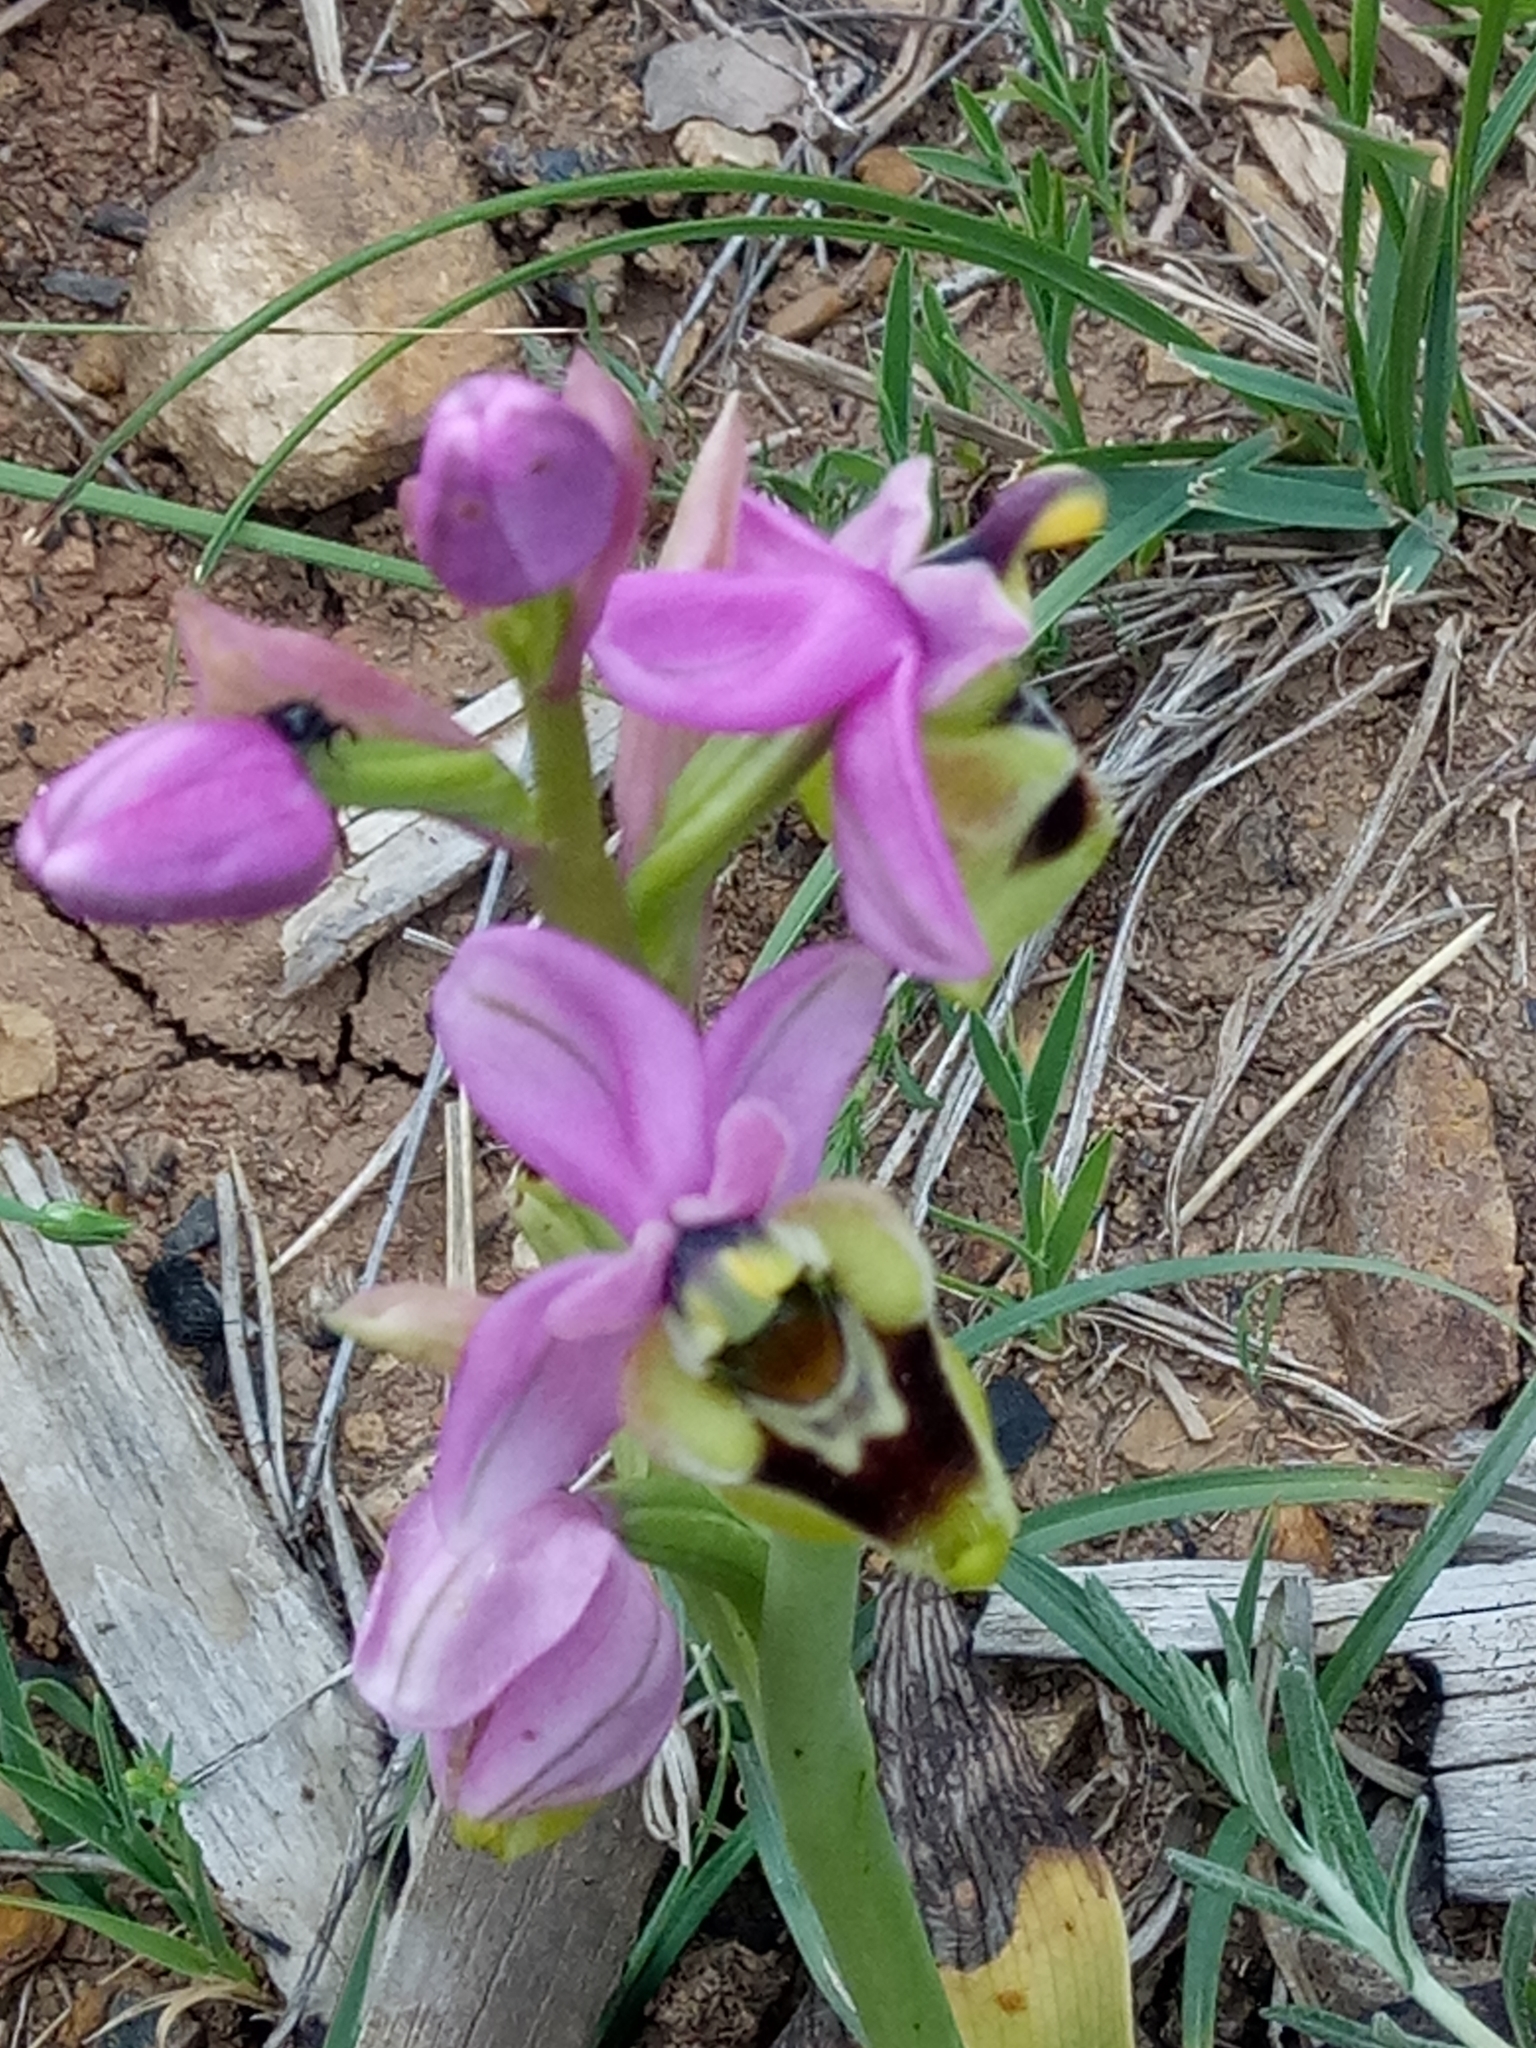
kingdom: Plantae
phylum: Tracheophyta
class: Liliopsida
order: Asparagales
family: Orchidaceae
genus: Ophrys
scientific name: Ophrys tenthredinifera
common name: Sawfly orchid
